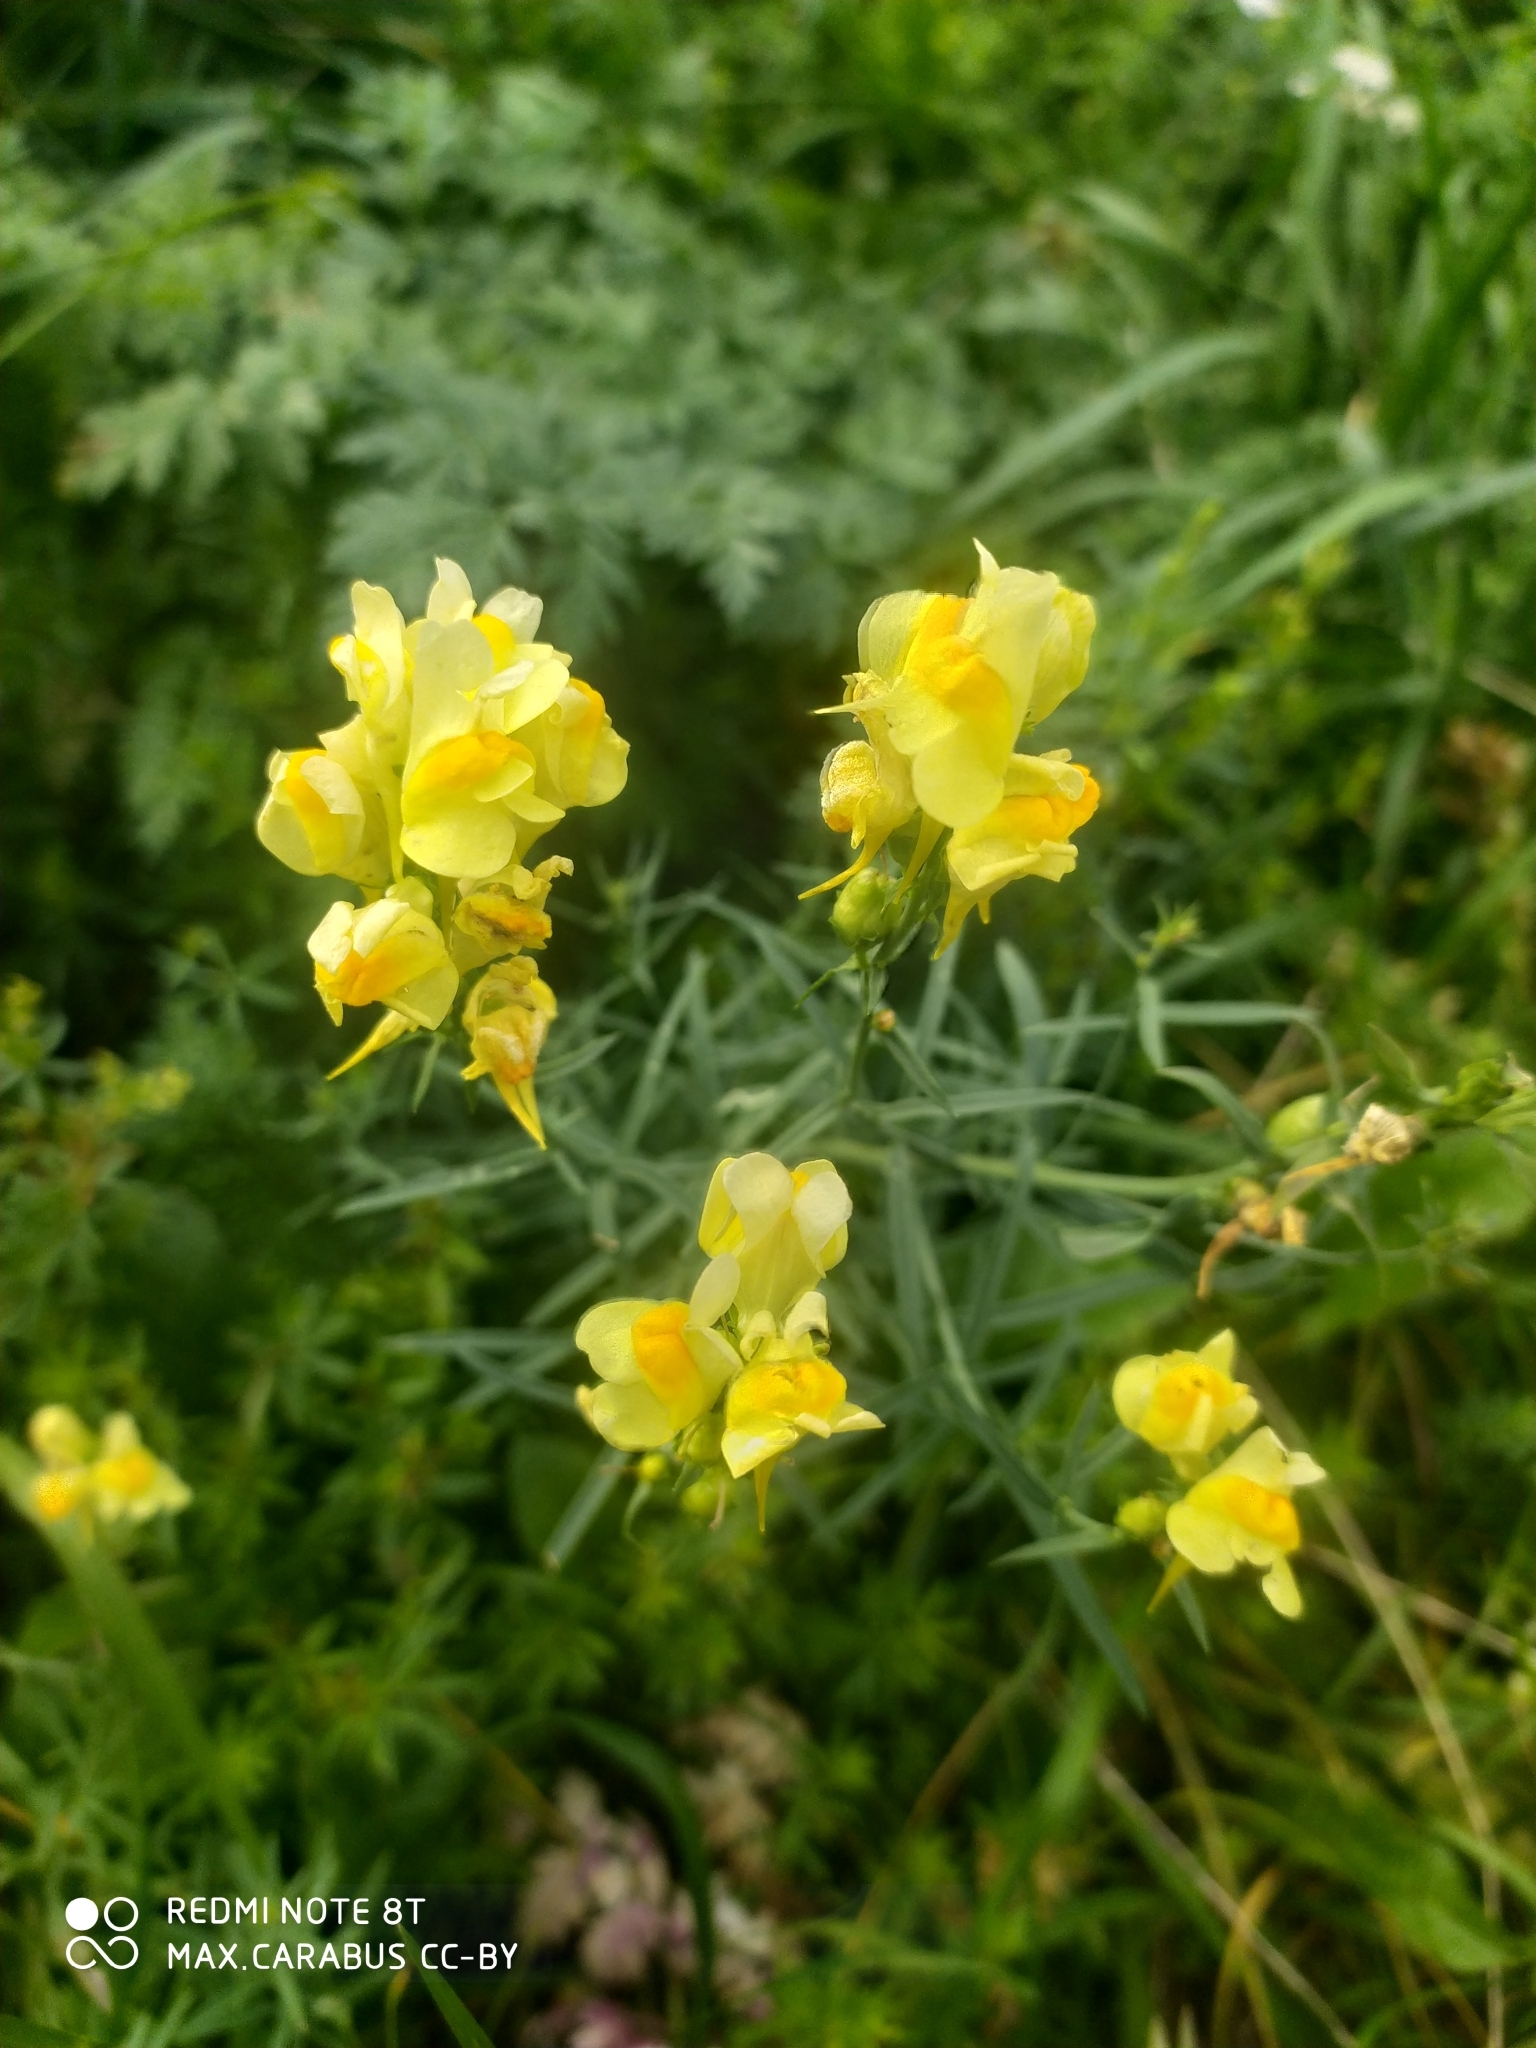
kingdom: Plantae
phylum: Tracheophyta
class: Magnoliopsida
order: Lamiales
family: Plantaginaceae
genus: Linaria
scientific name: Linaria vulgaris
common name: Butter and eggs
